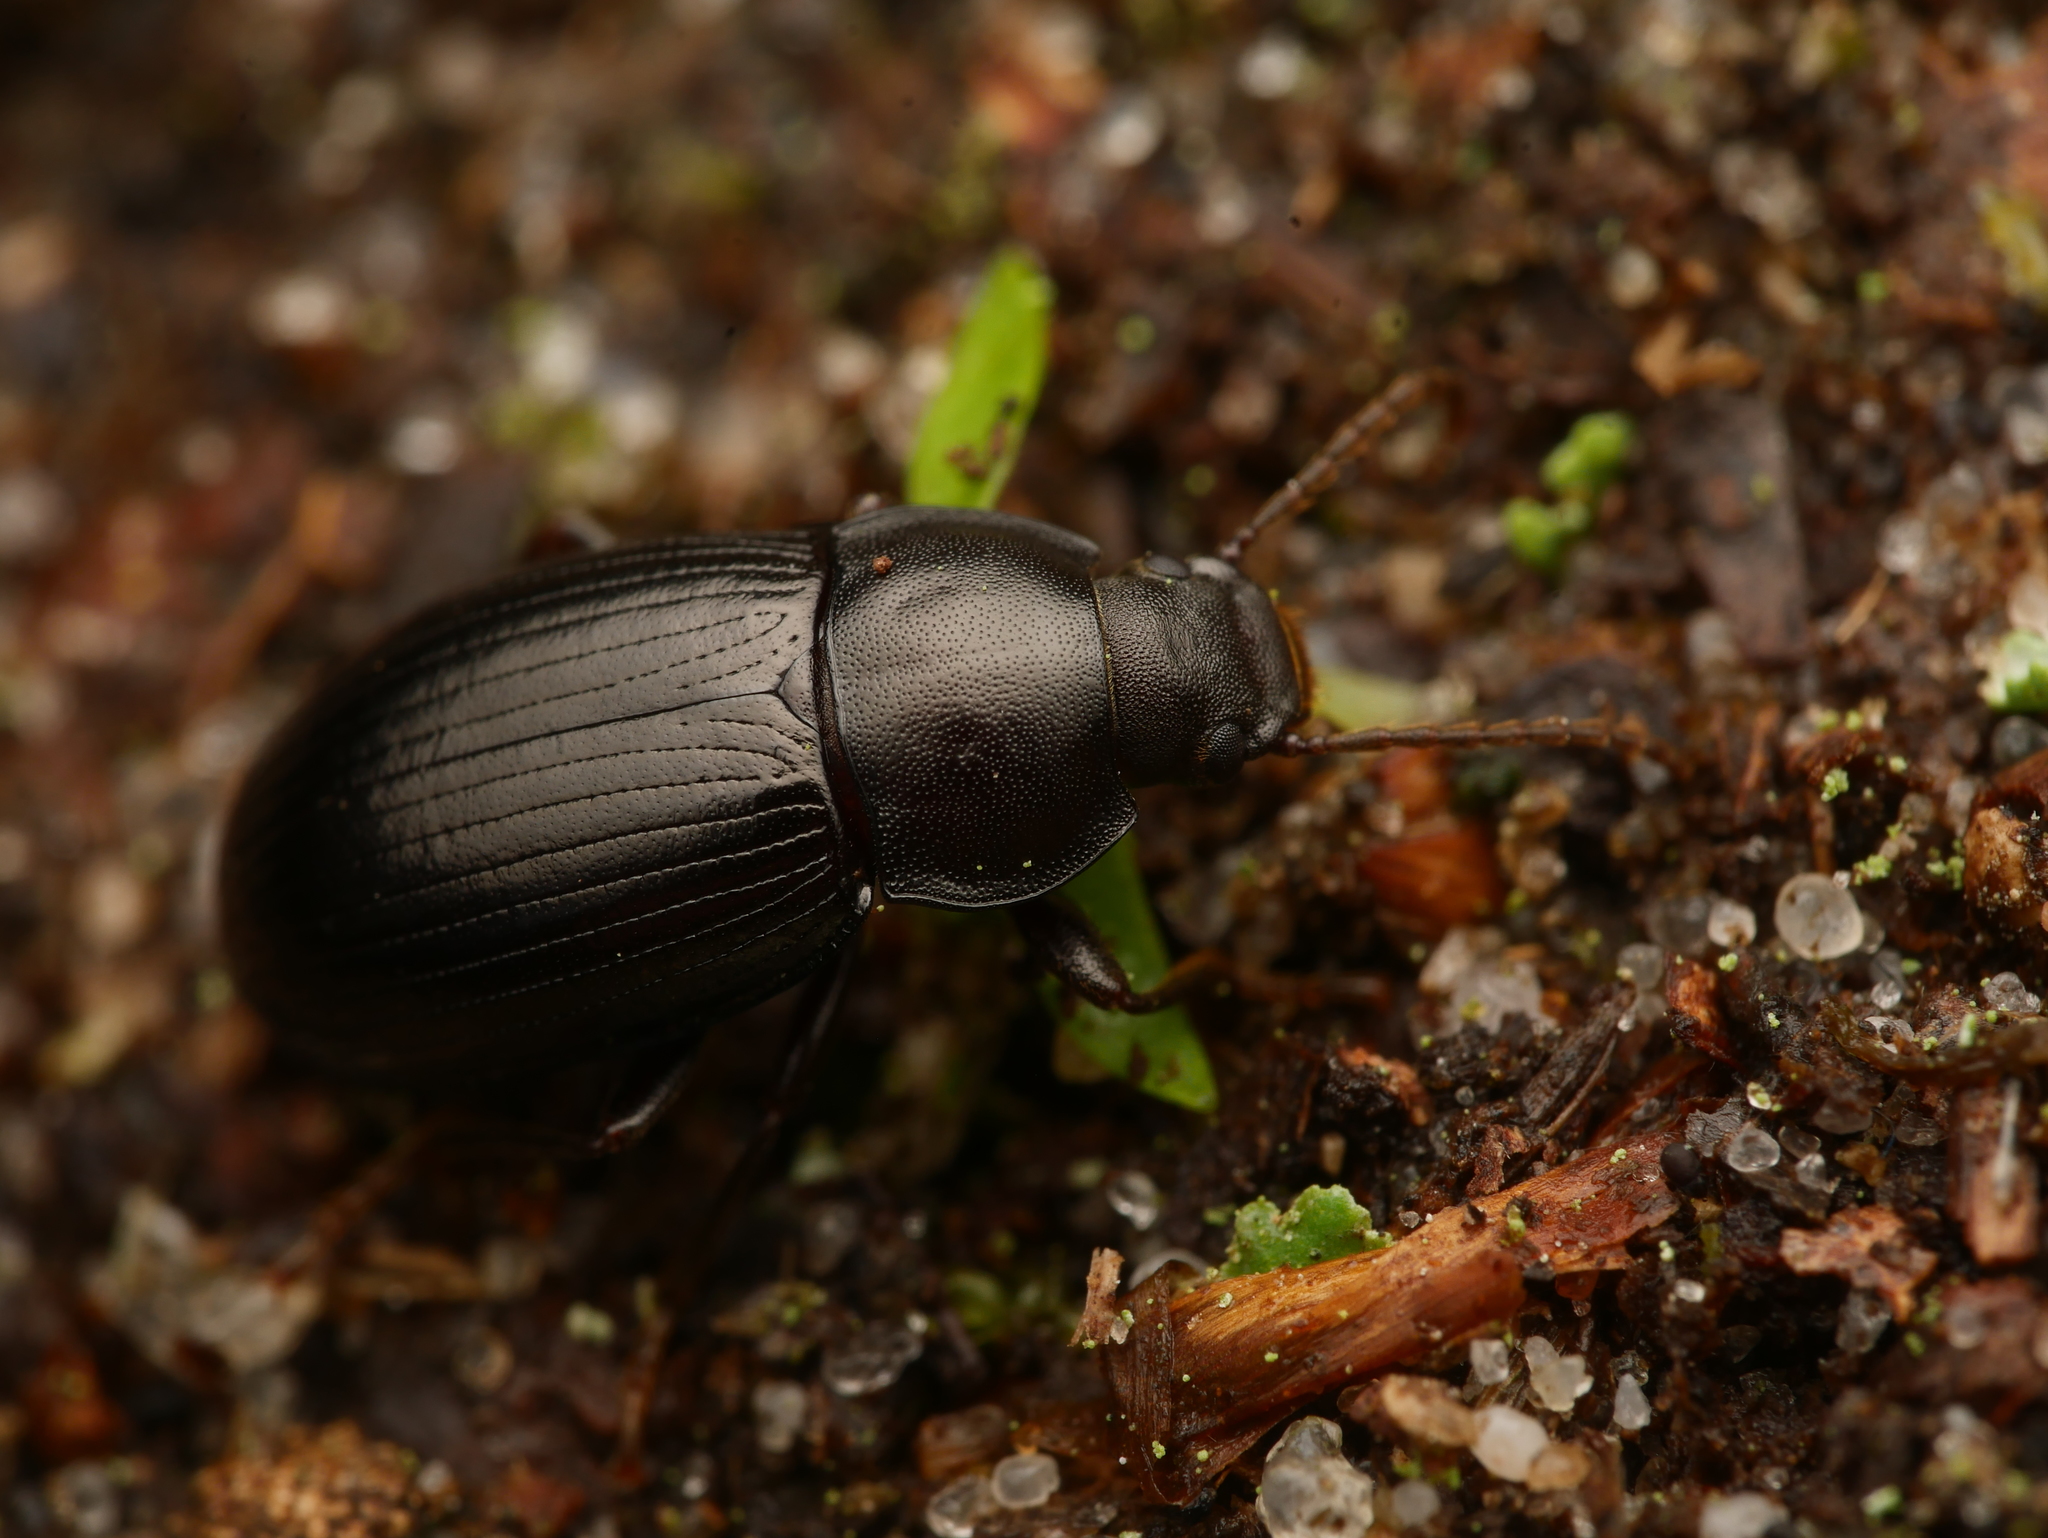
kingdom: Animalia
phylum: Arthropoda
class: Insecta
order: Coleoptera
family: Tenebrionidae
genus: Nalassus
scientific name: Nalassus dermestoides
